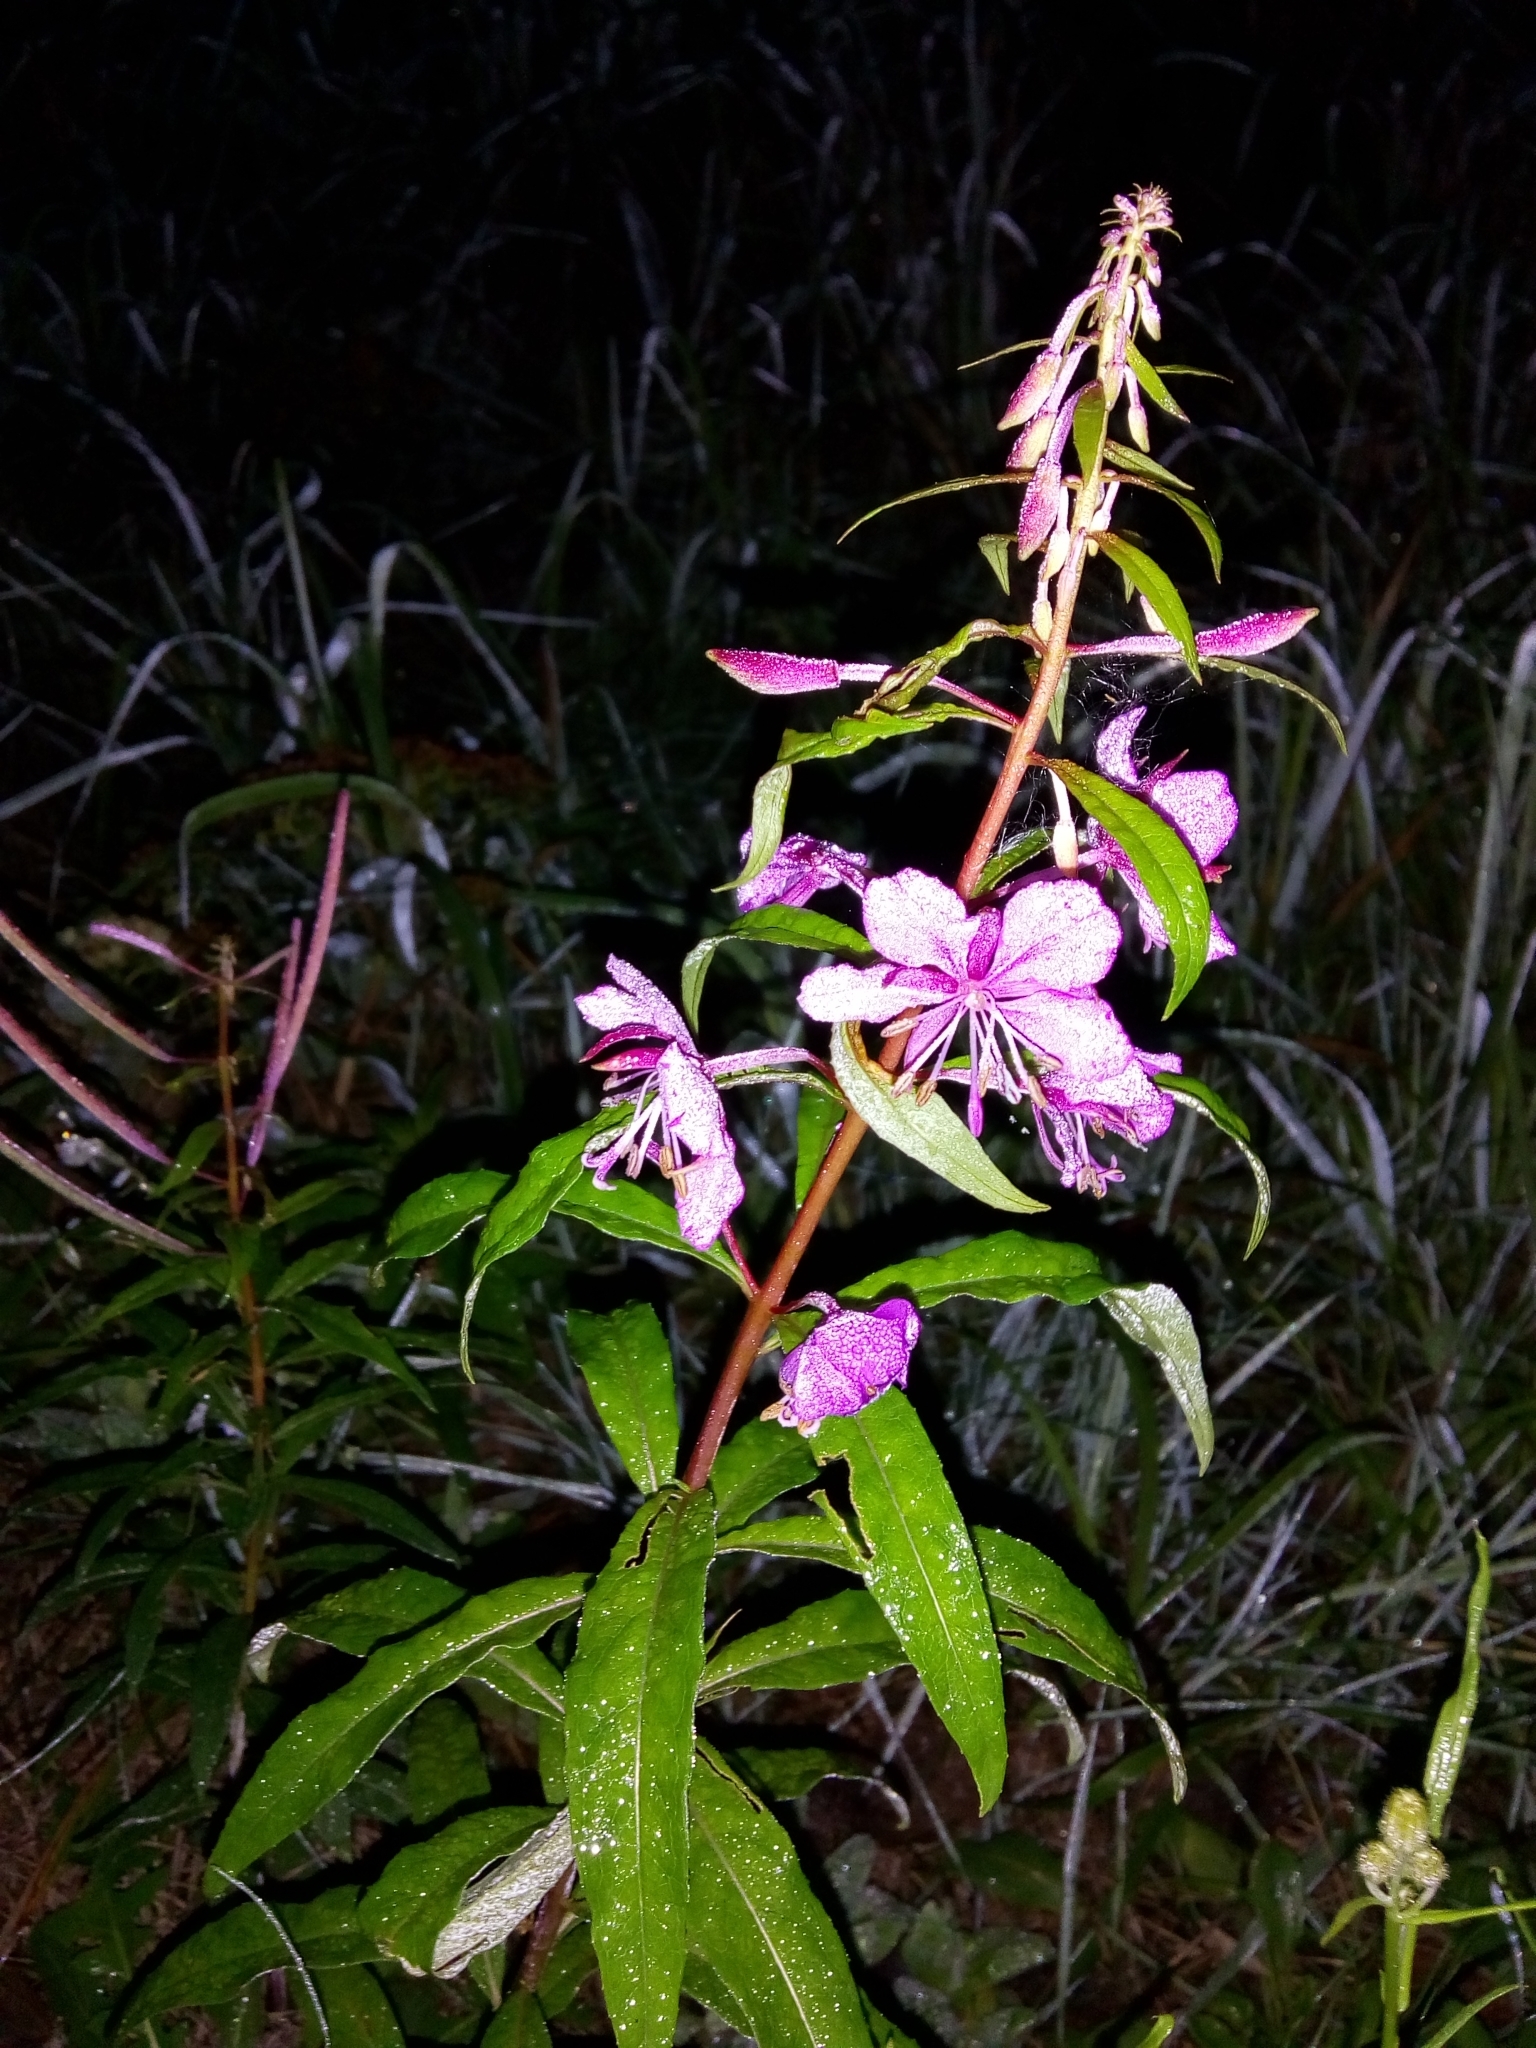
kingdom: Plantae
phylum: Tracheophyta
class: Magnoliopsida
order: Myrtales
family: Onagraceae
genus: Chamaenerion
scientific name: Chamaenerion angustifolium
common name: Fireweed
